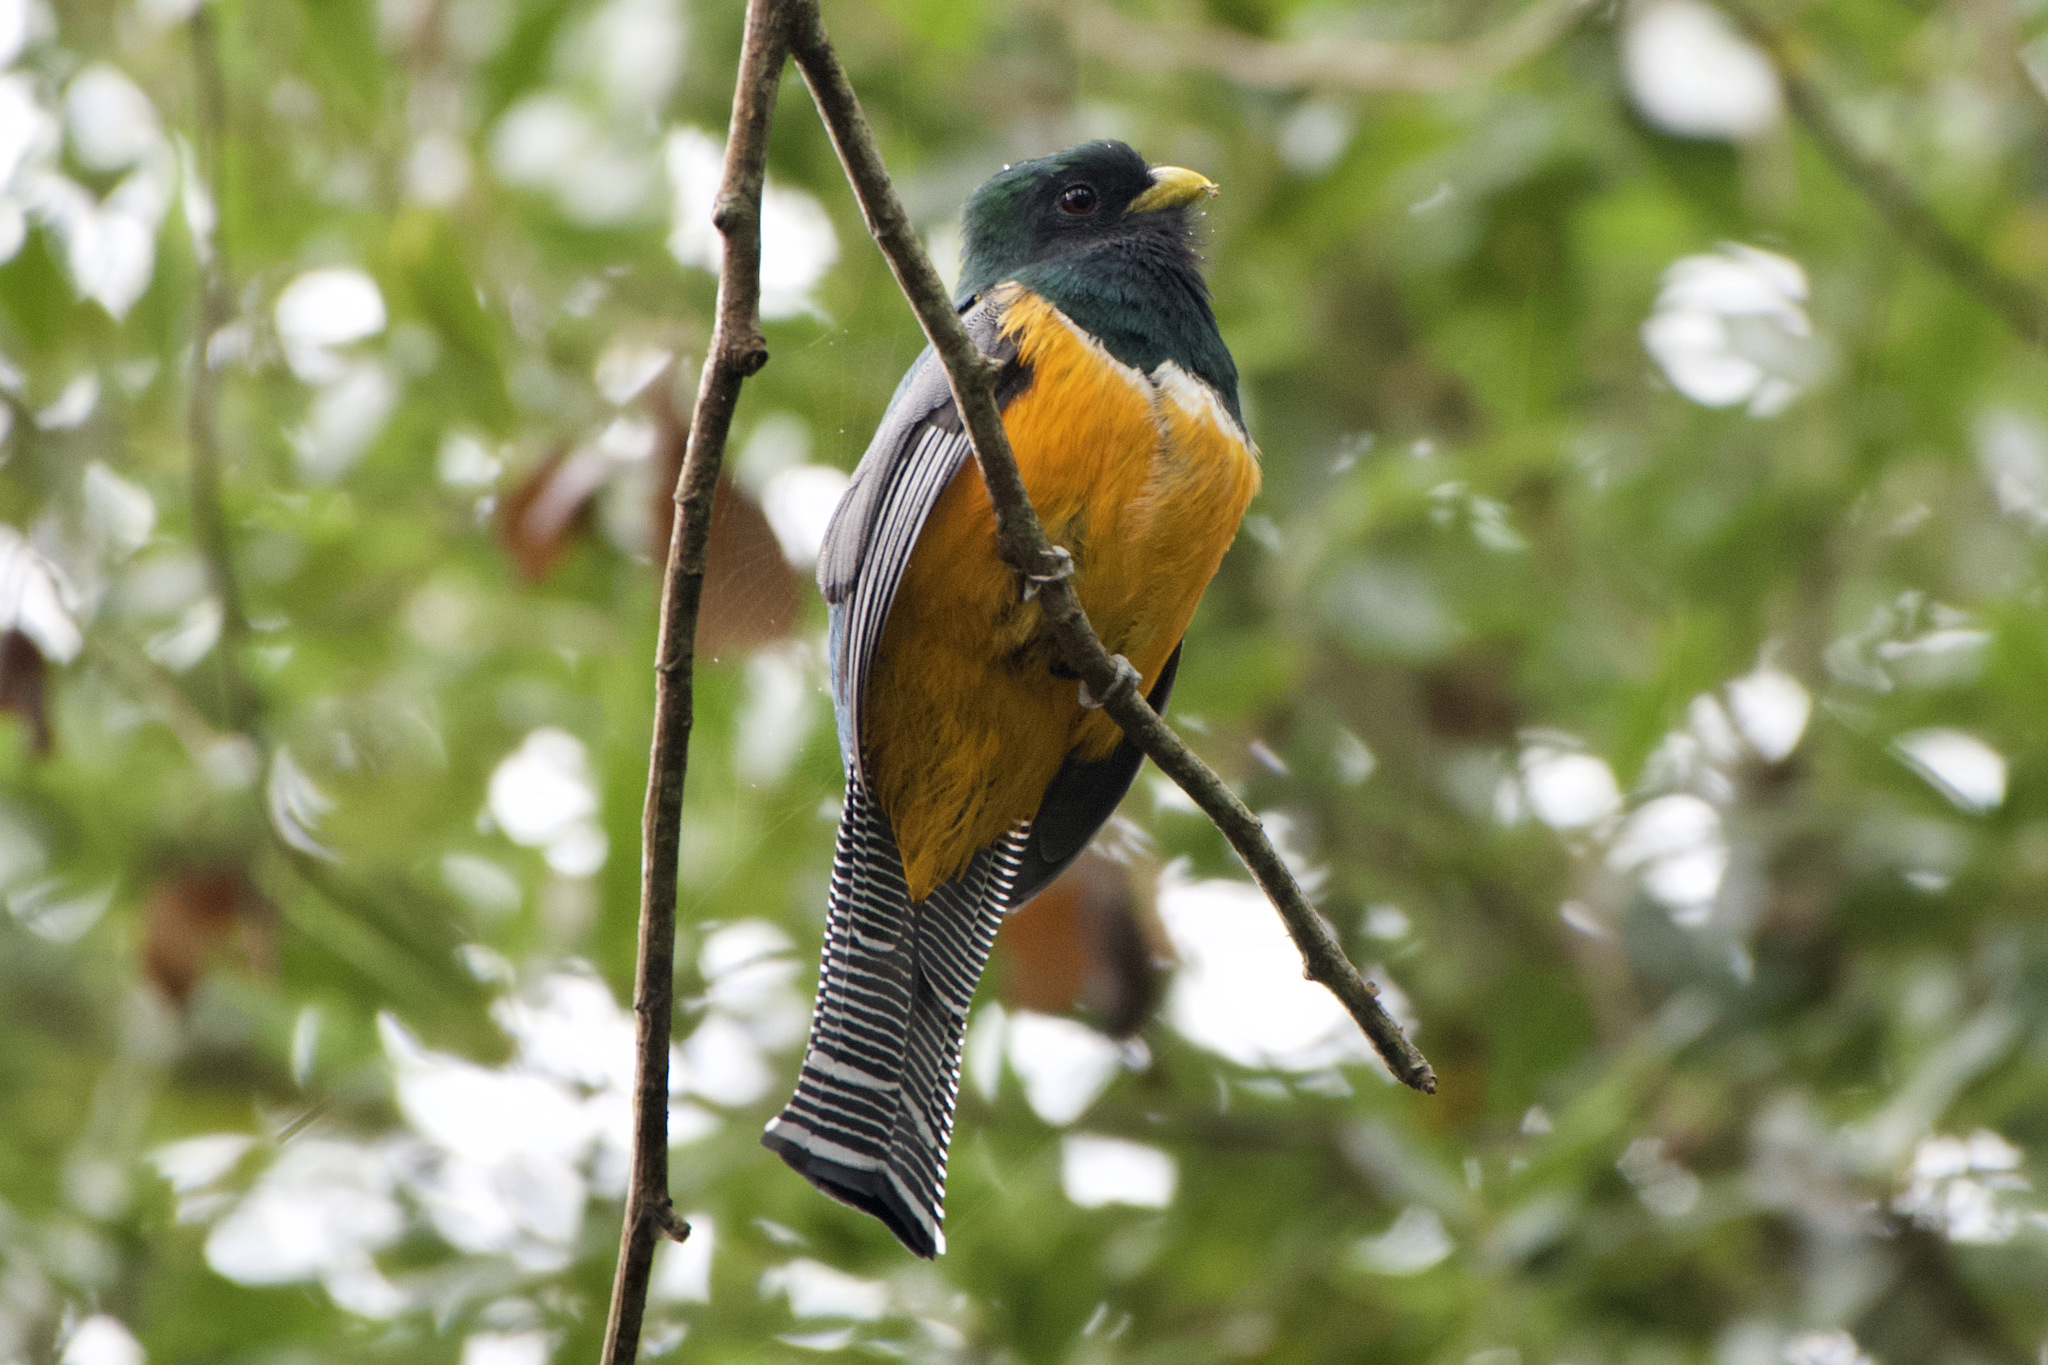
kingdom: Animalia
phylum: Chordata
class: Aves
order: Trogoniformes
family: Trogonidae
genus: Trogon
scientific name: Trogon collaris
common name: Collared trogon
